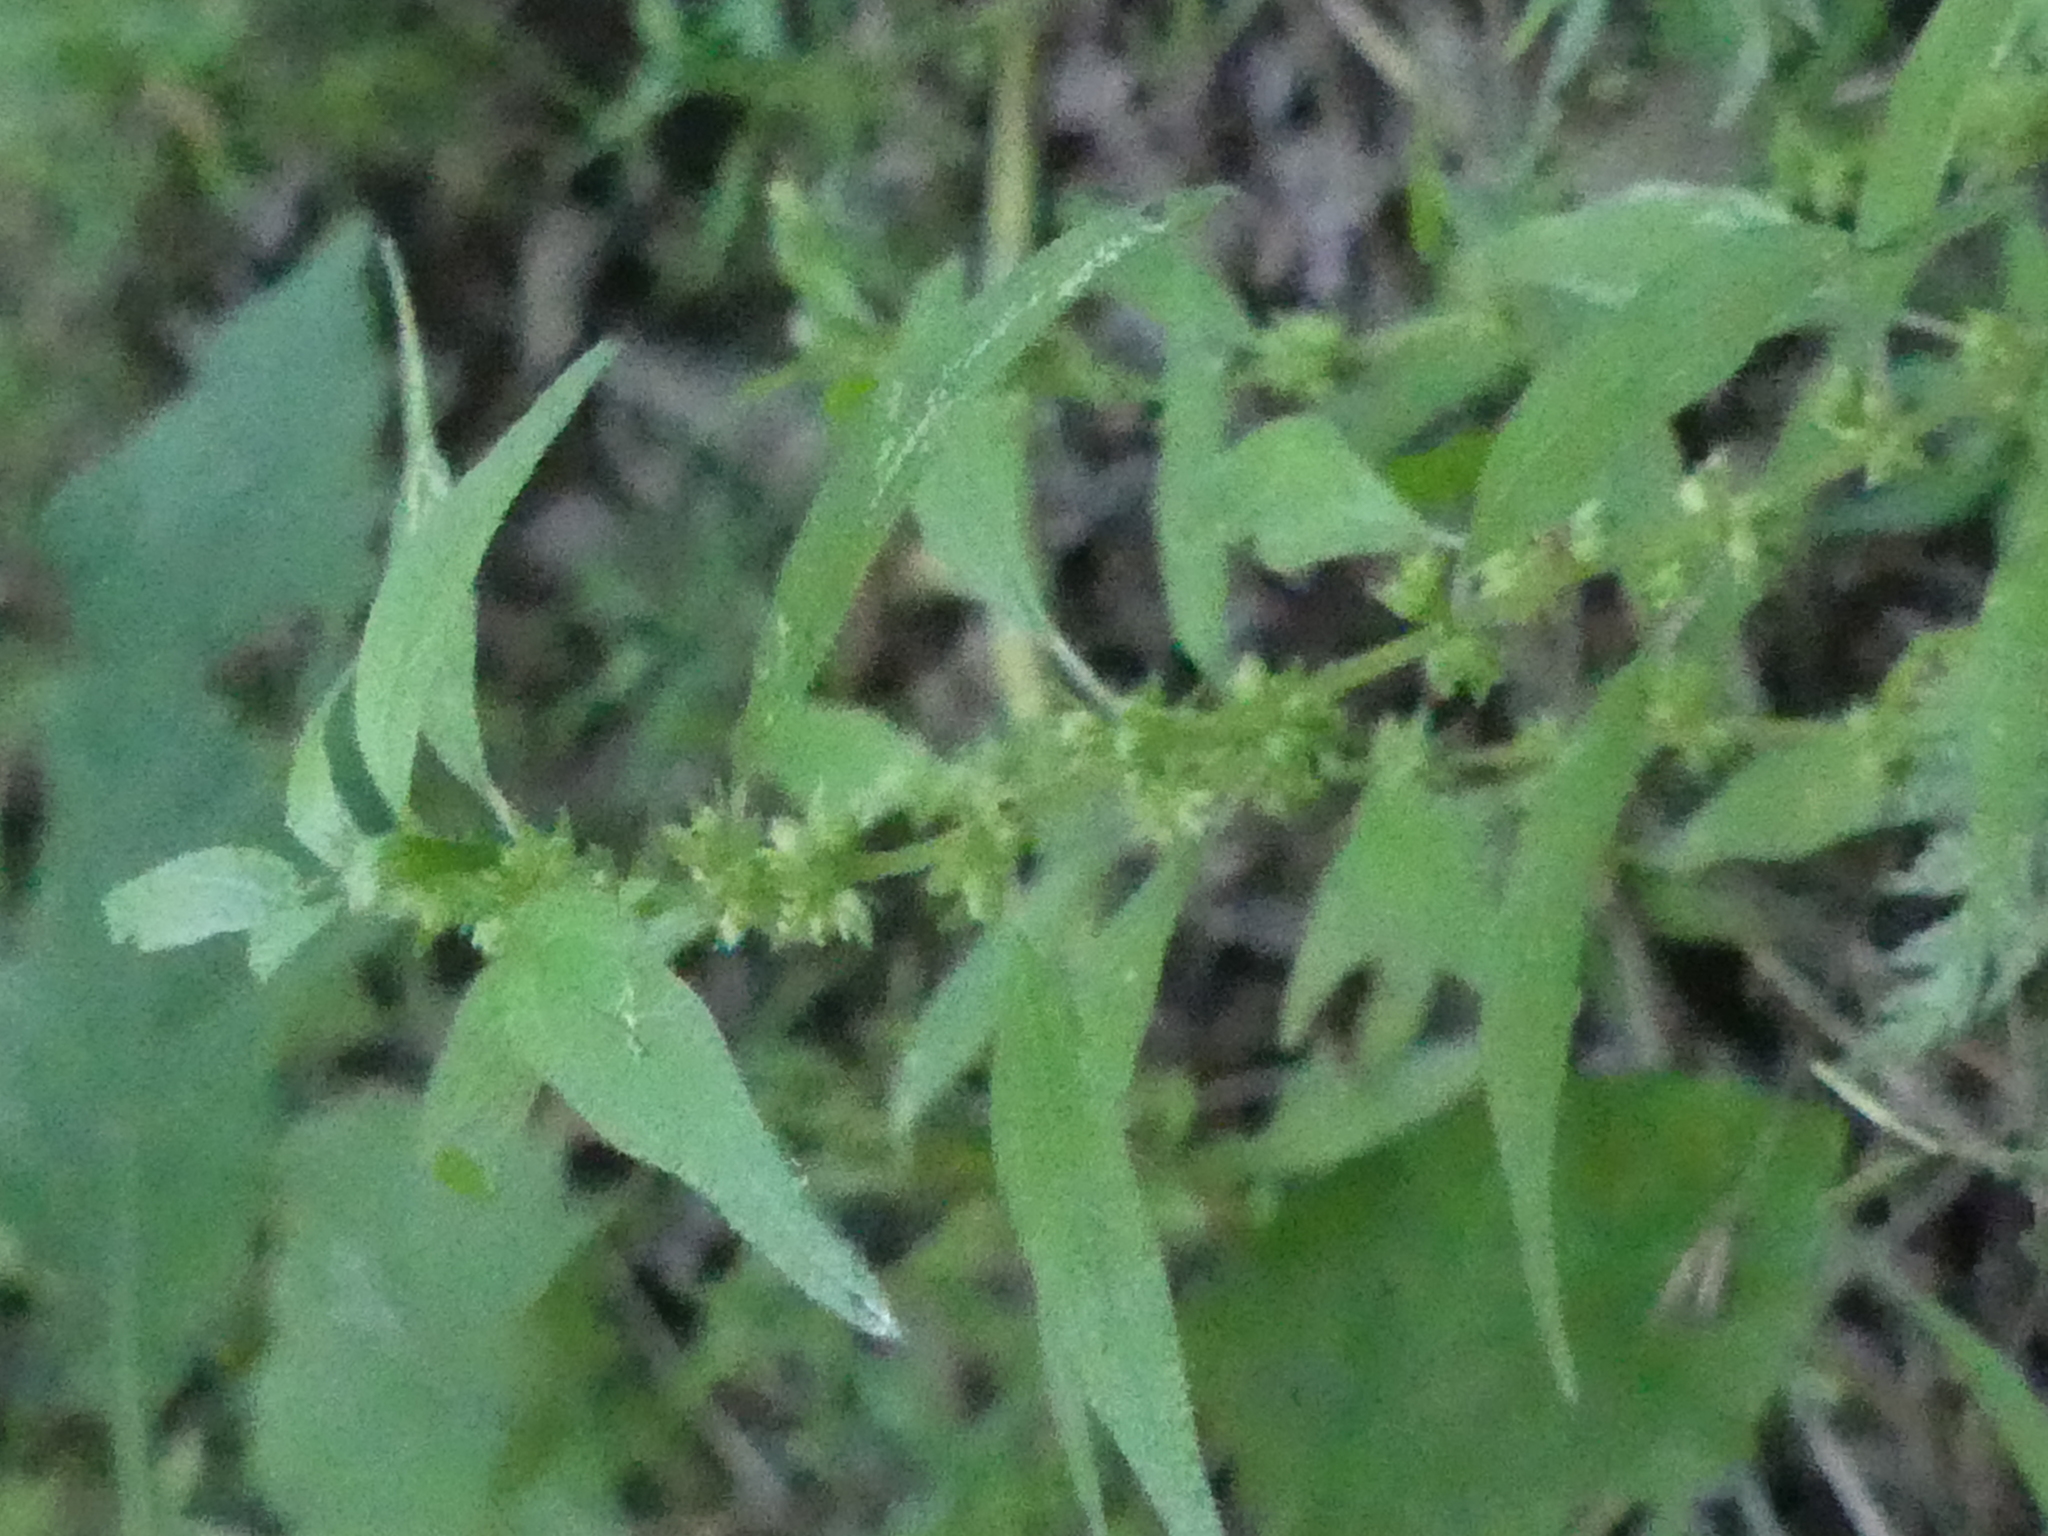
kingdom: Plantae
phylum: Tracheophyta
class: Magnoliopsida
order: Rosales
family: Urticaceae
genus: Parietaria
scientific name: Parietaria pensylvanica
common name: Pennsylvania pellitory
